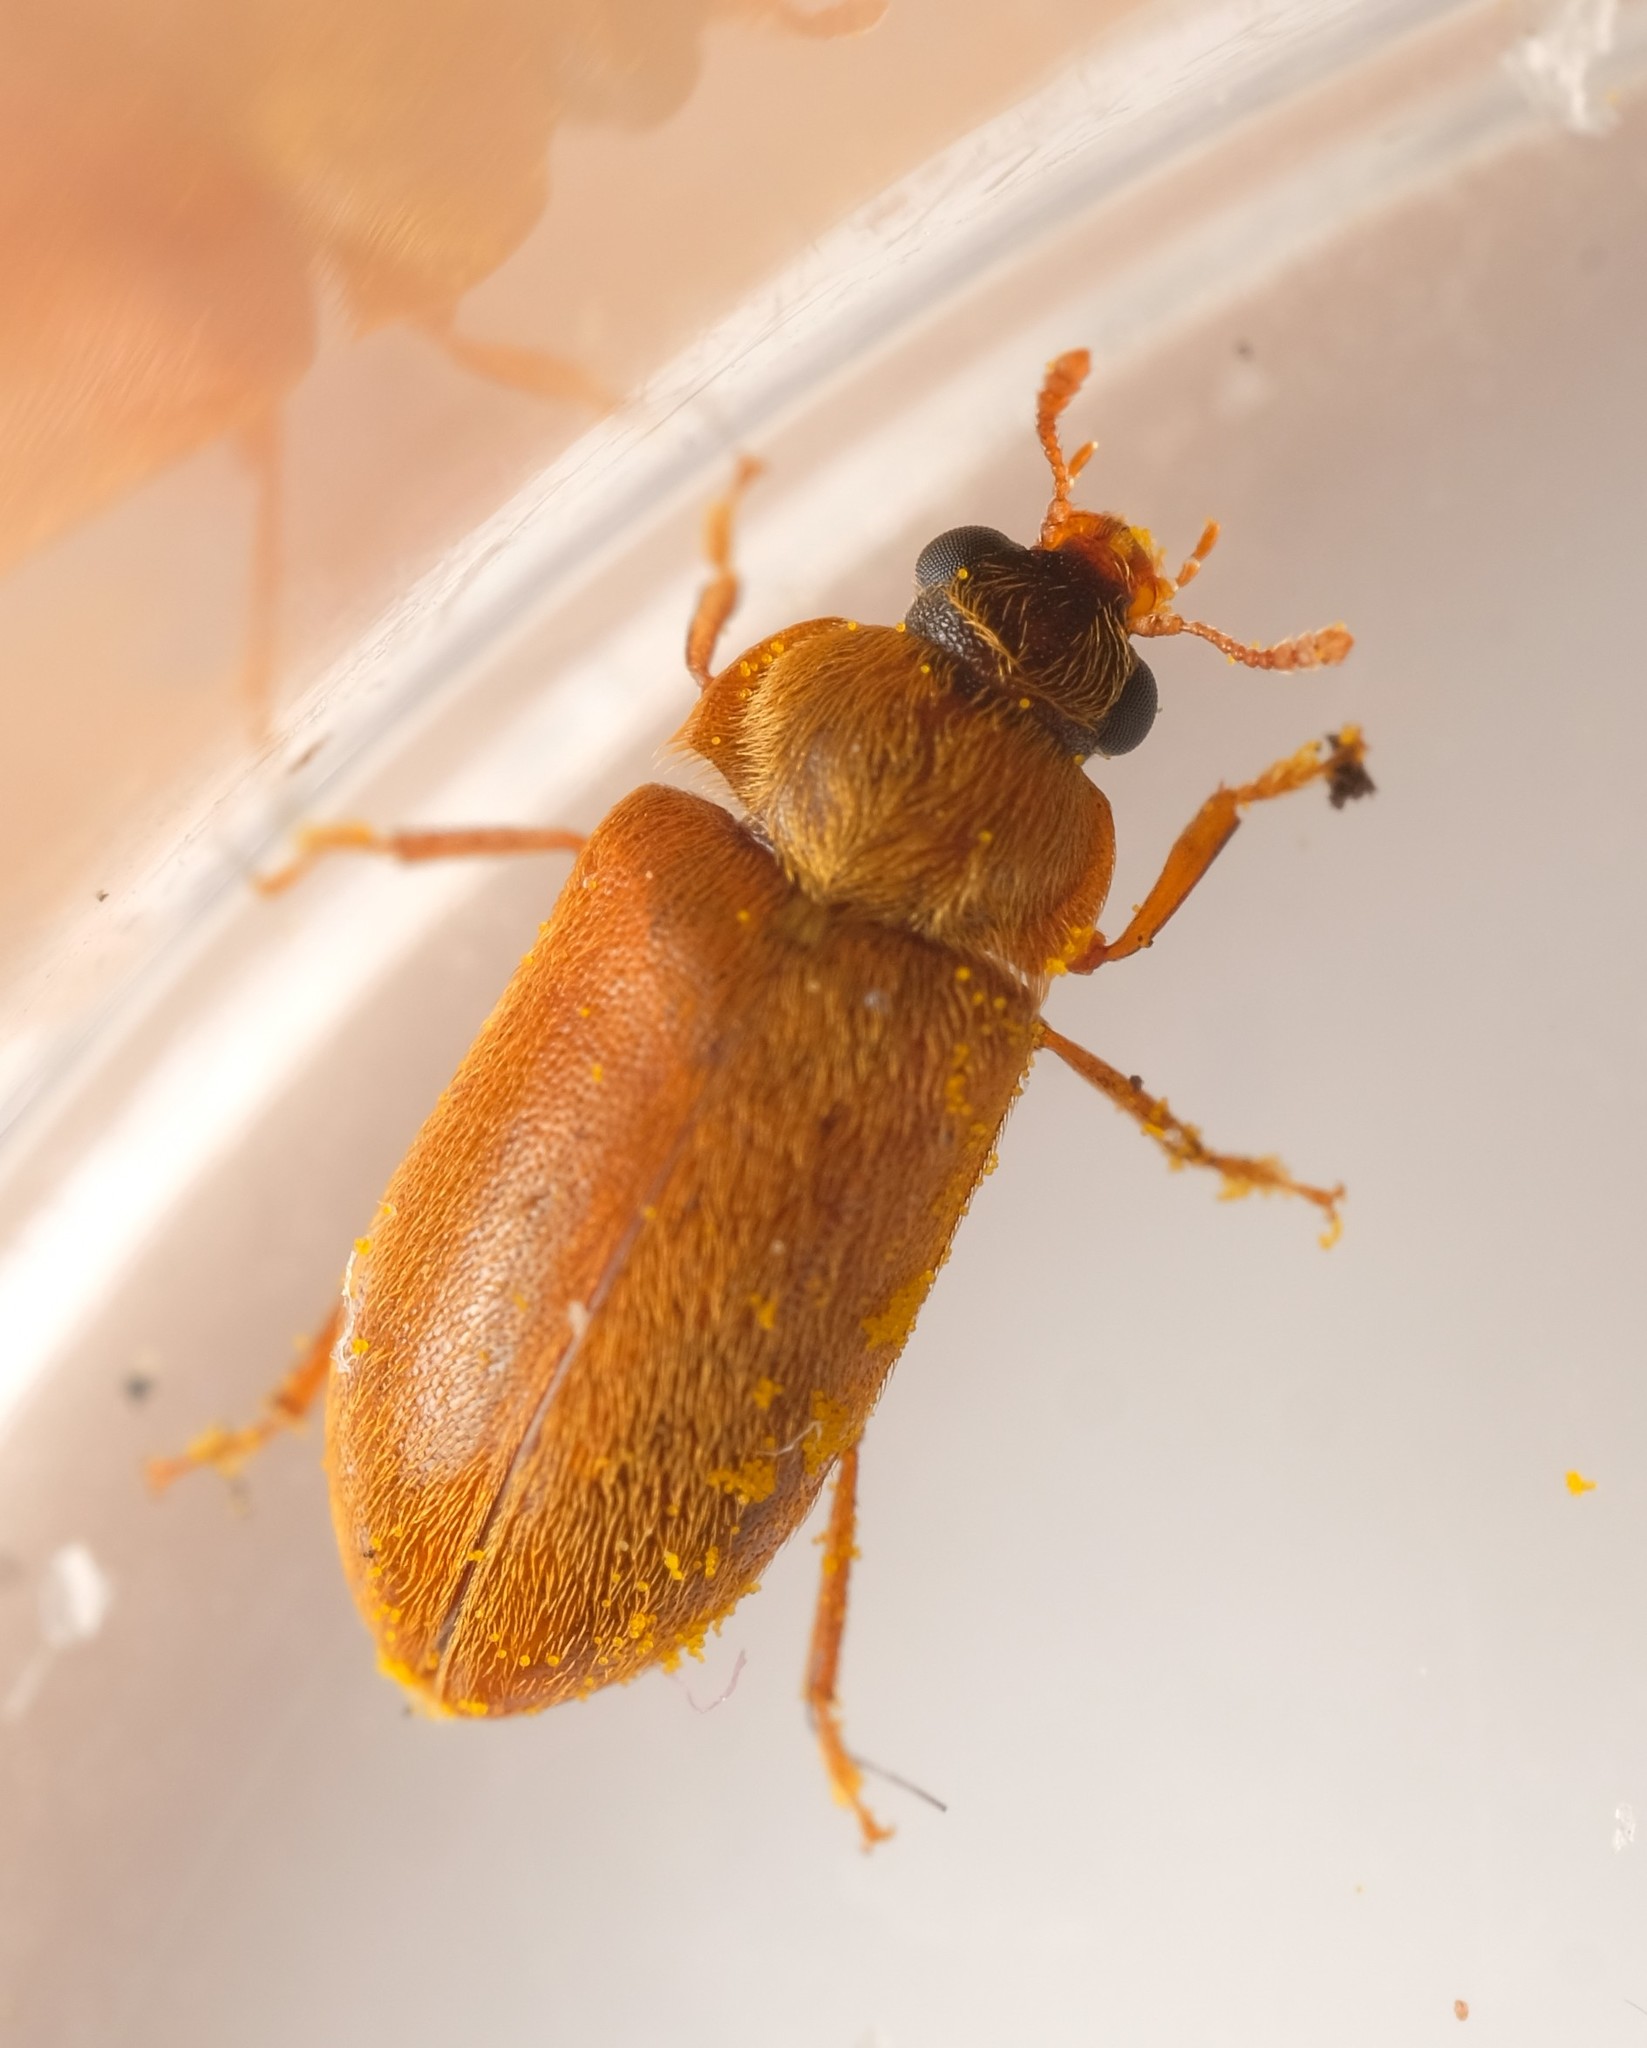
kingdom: Animalia
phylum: Arthropoda
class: Insecta
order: Coleoptera
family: Byturidae
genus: Byturus
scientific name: Byturus ochraceus
